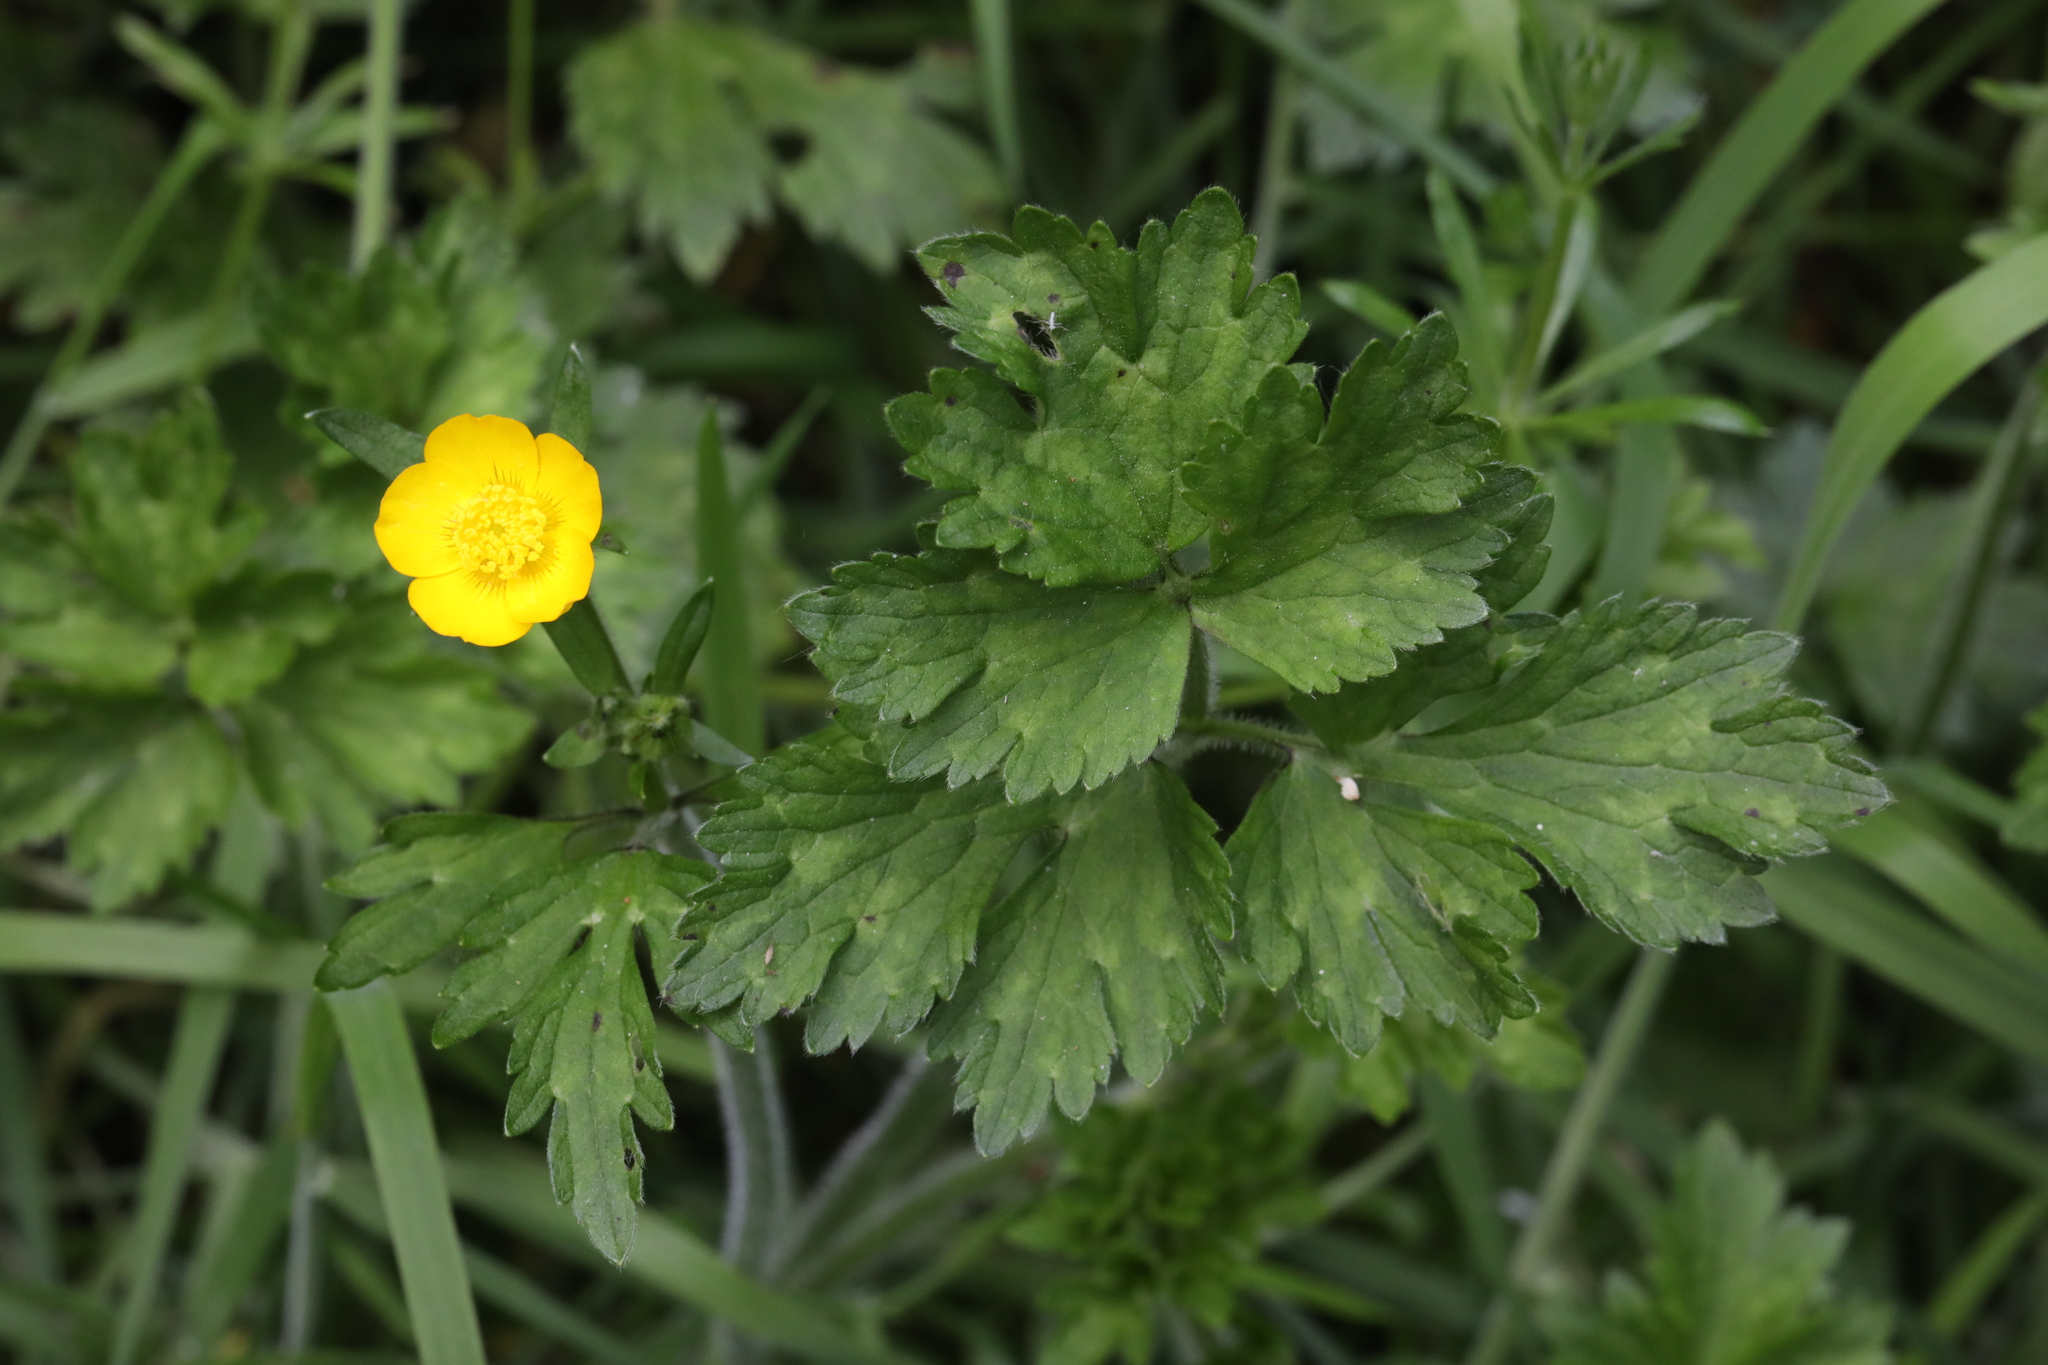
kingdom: Plantae
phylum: Tracheophyta
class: Magnoliopsida
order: Ranunculales
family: Ranunculaceae
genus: Ranunculus
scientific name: Ranunculus repens
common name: Creeping buttercup
